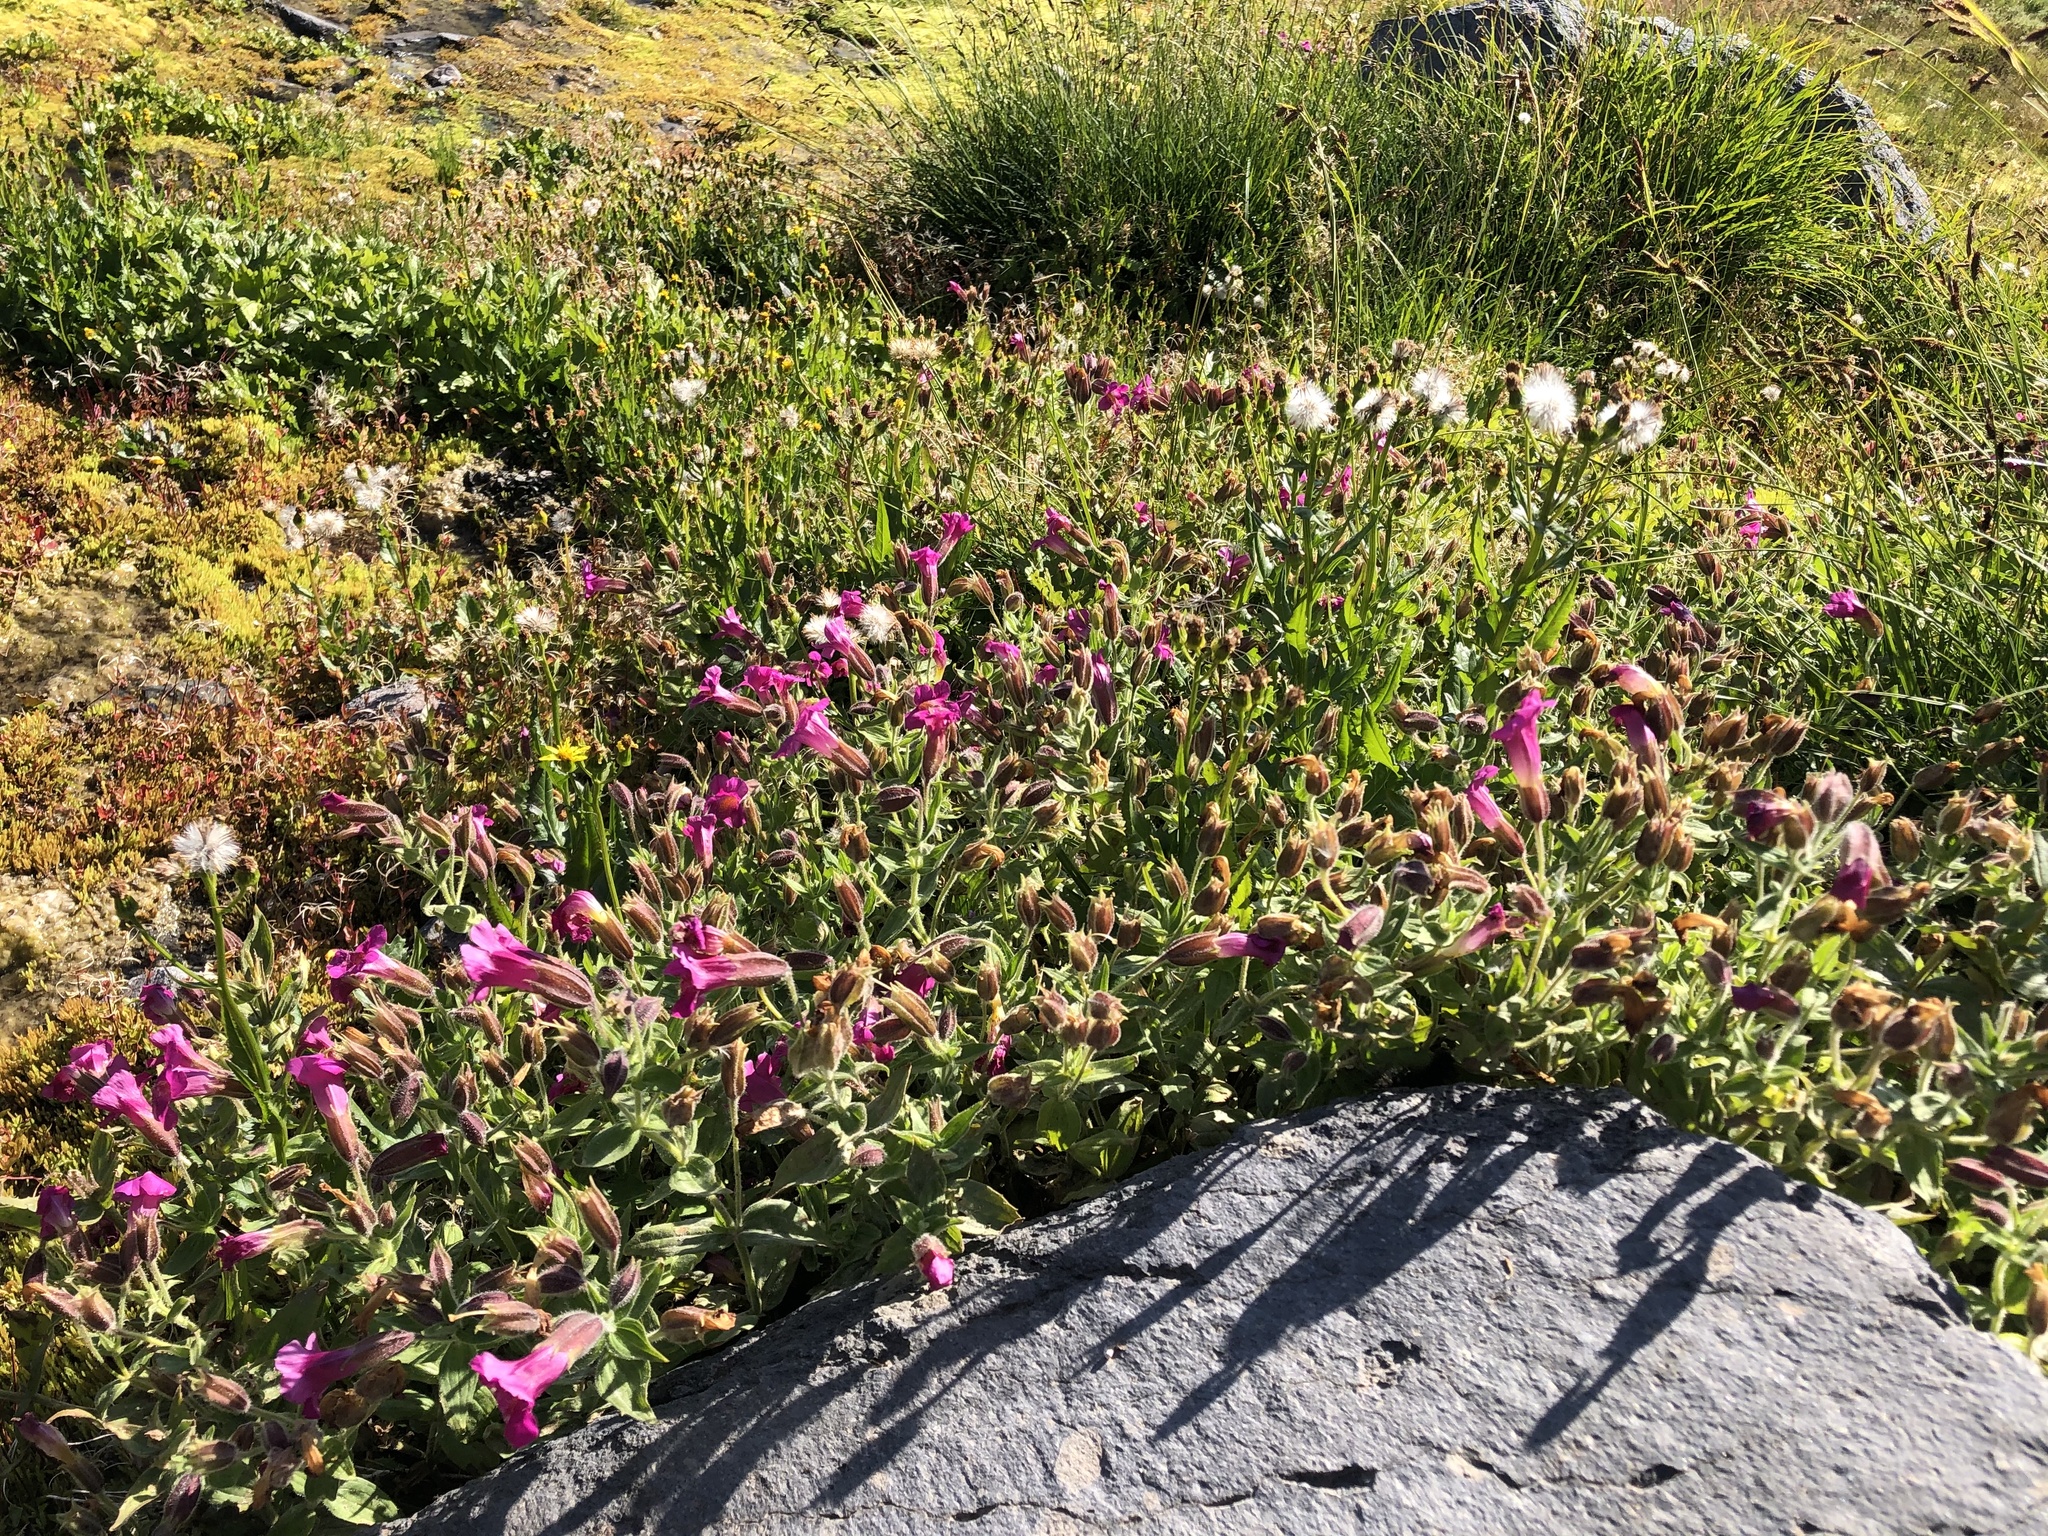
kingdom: Plantae
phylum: Tracheophyta
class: Magnoliopsida
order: Lamiales
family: Phrymaceae
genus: Erythranthe
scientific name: Erythranthe lewisii
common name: Lewis's monkey-flower
